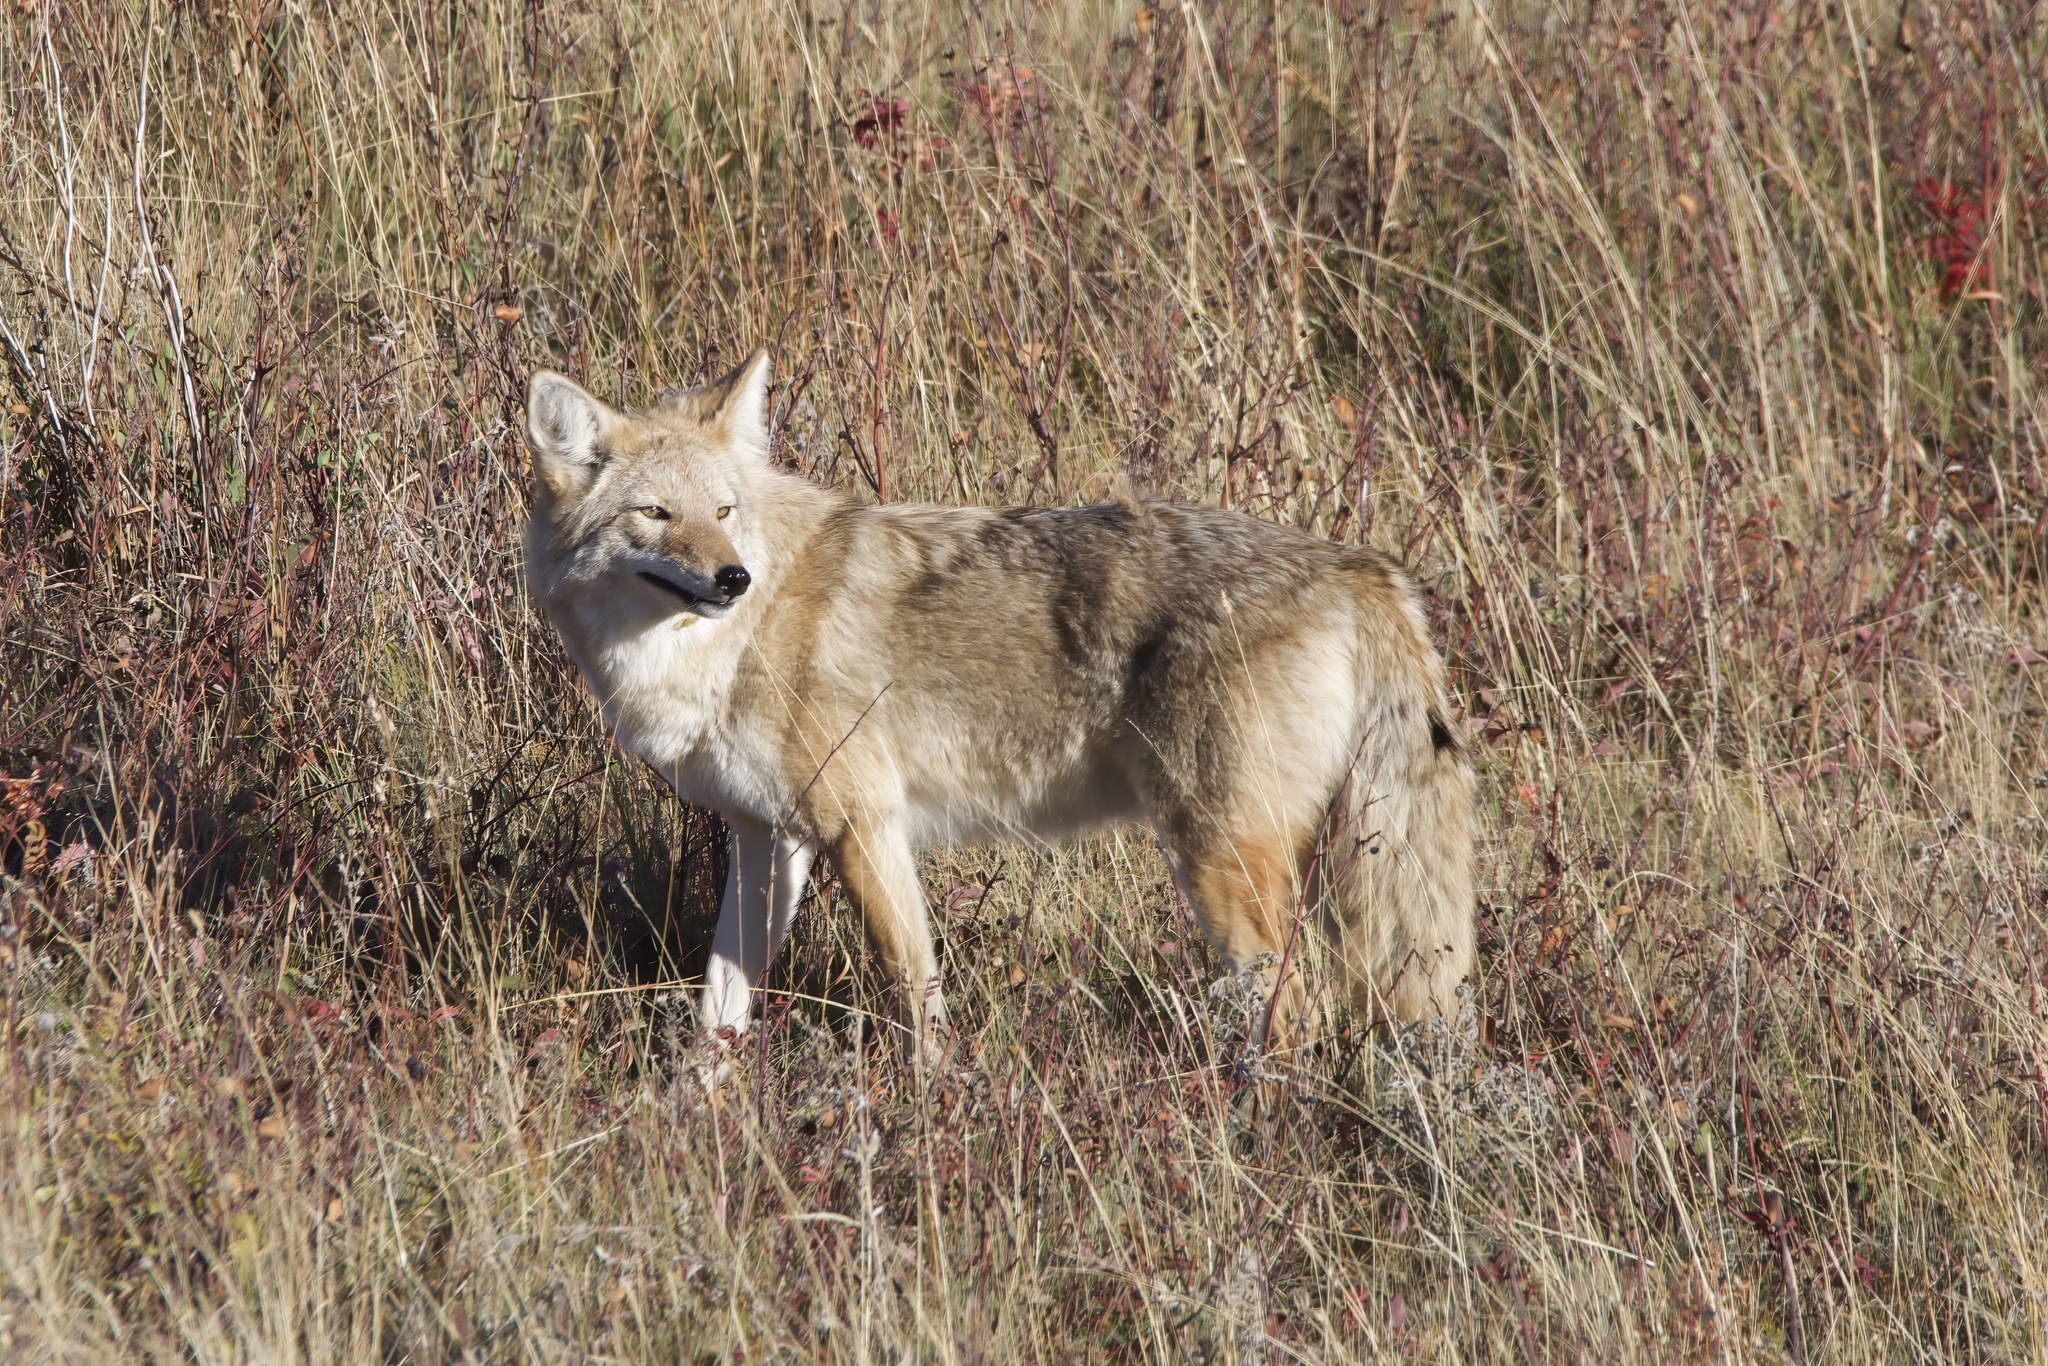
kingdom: Animalia
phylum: Chordata
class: Mammalia
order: Carnivora
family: Canidae
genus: Canis
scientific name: Canis latrans
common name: Coyote
